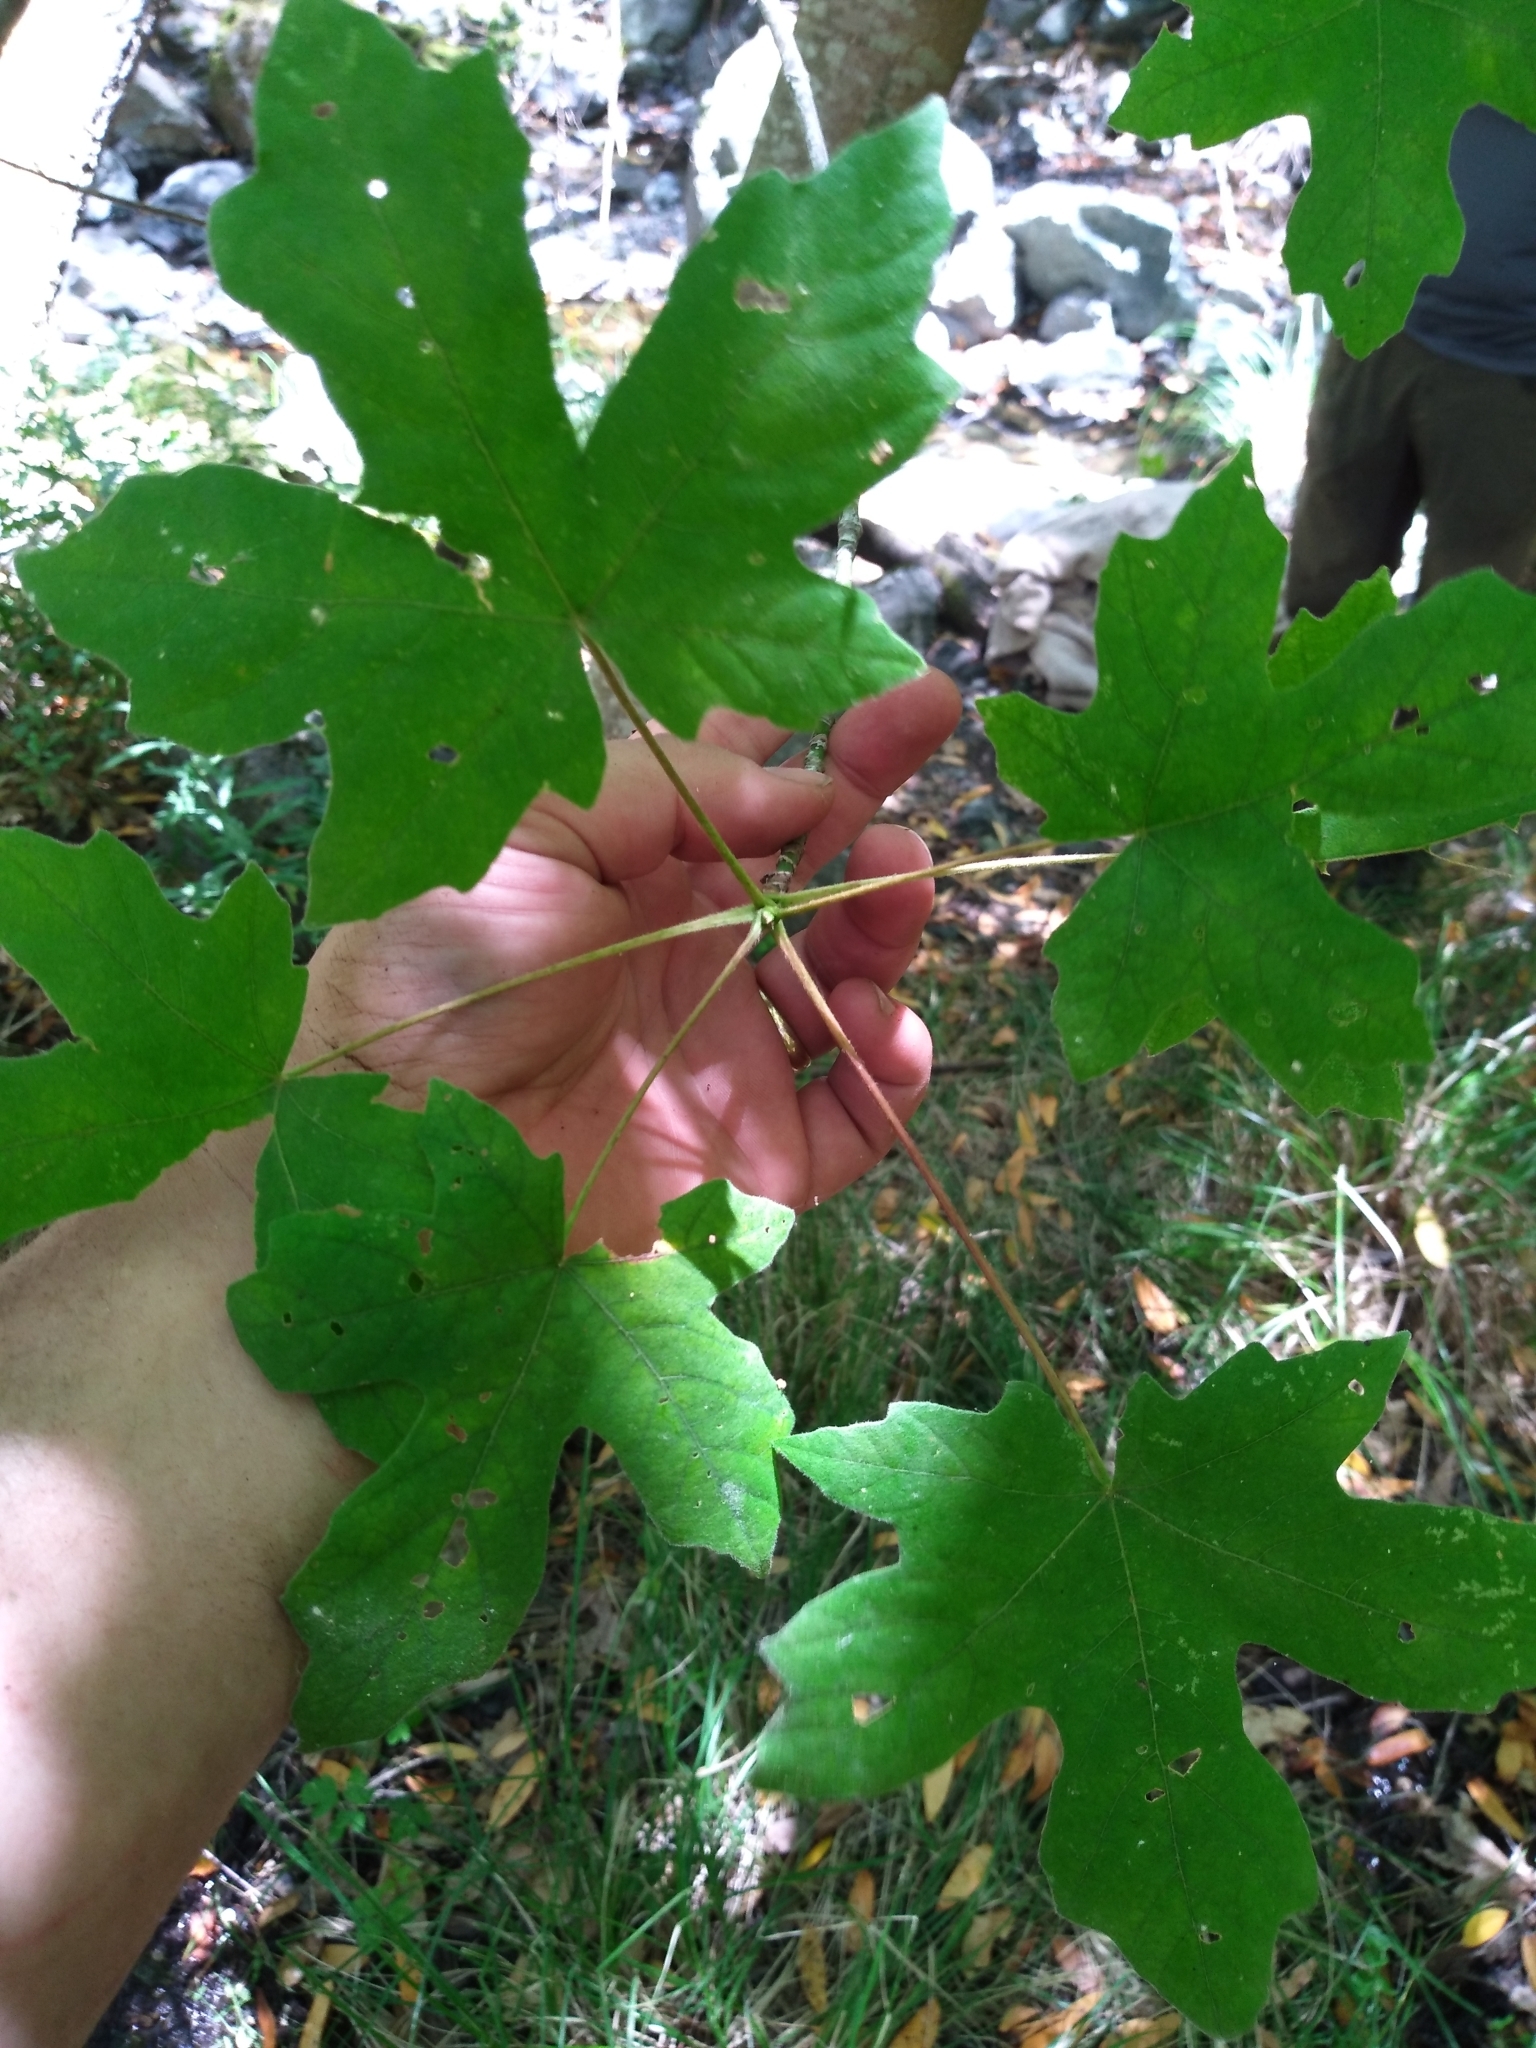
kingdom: Plantae
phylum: Tracheophyta
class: Magnoliopsida
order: Sapindales
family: Sapindaceae
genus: Acer
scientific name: Acer macrophyllum
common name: Oregon maple
